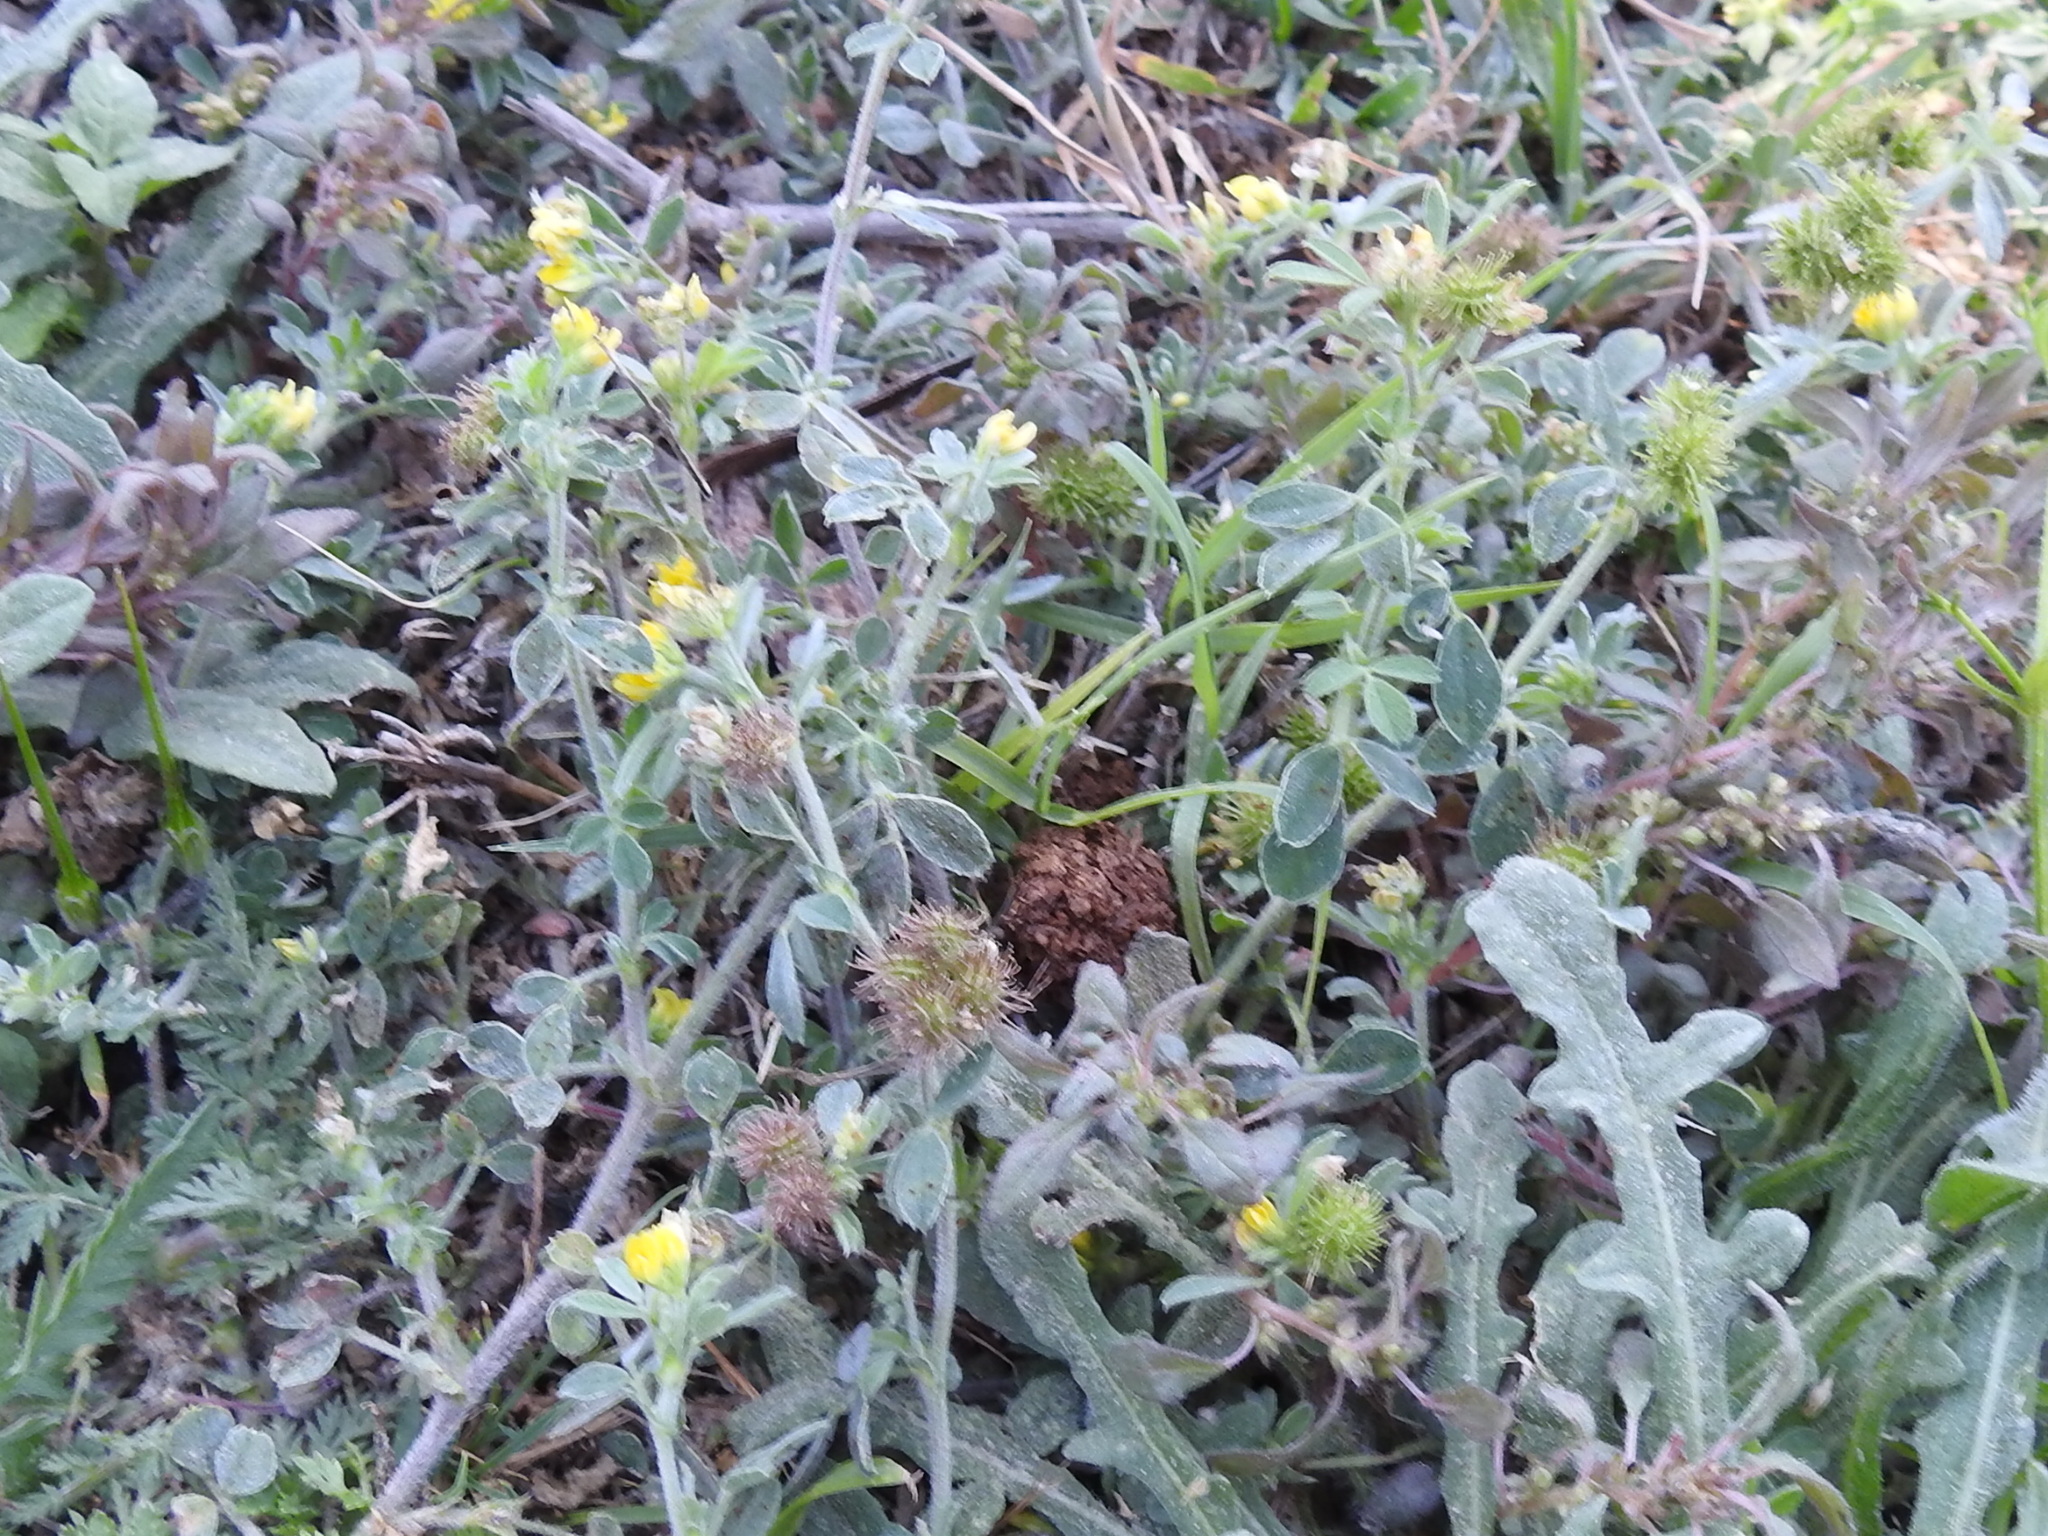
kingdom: Plantae
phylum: Tracheophyta
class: Magnoliopsida
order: Fabales
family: Fabaceae
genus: Medicago
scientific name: Medicago minima
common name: Little bur-clover
